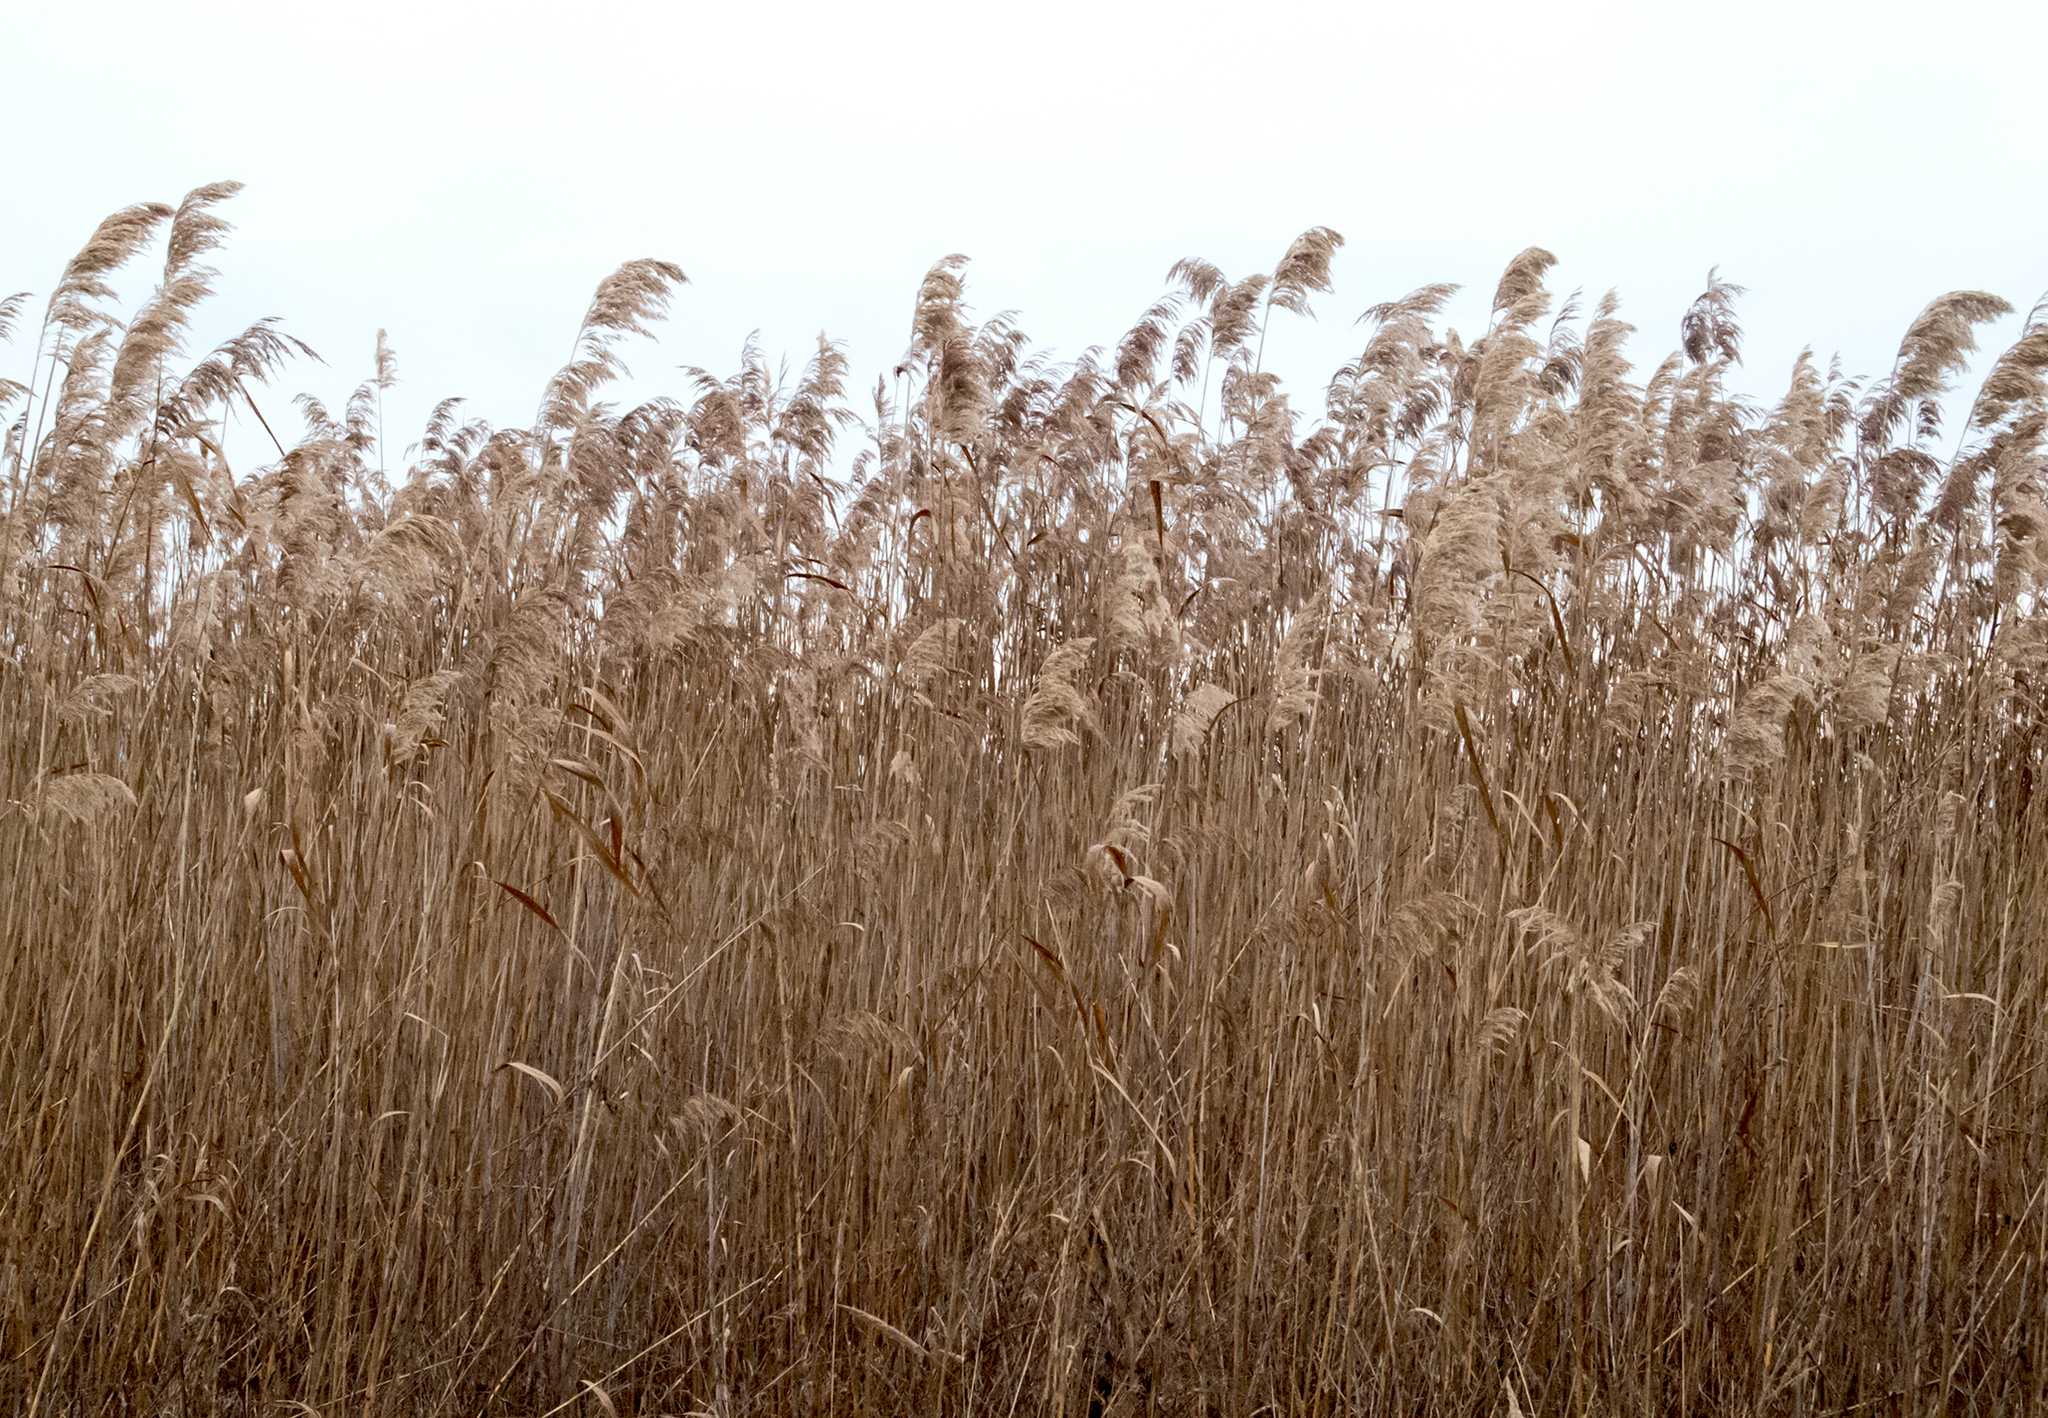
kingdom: Plantae
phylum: Tracheophyta
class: Liliopsida
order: Poales
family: Poaceae
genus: Phragmites
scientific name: Phragmites australis
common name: Common reed
